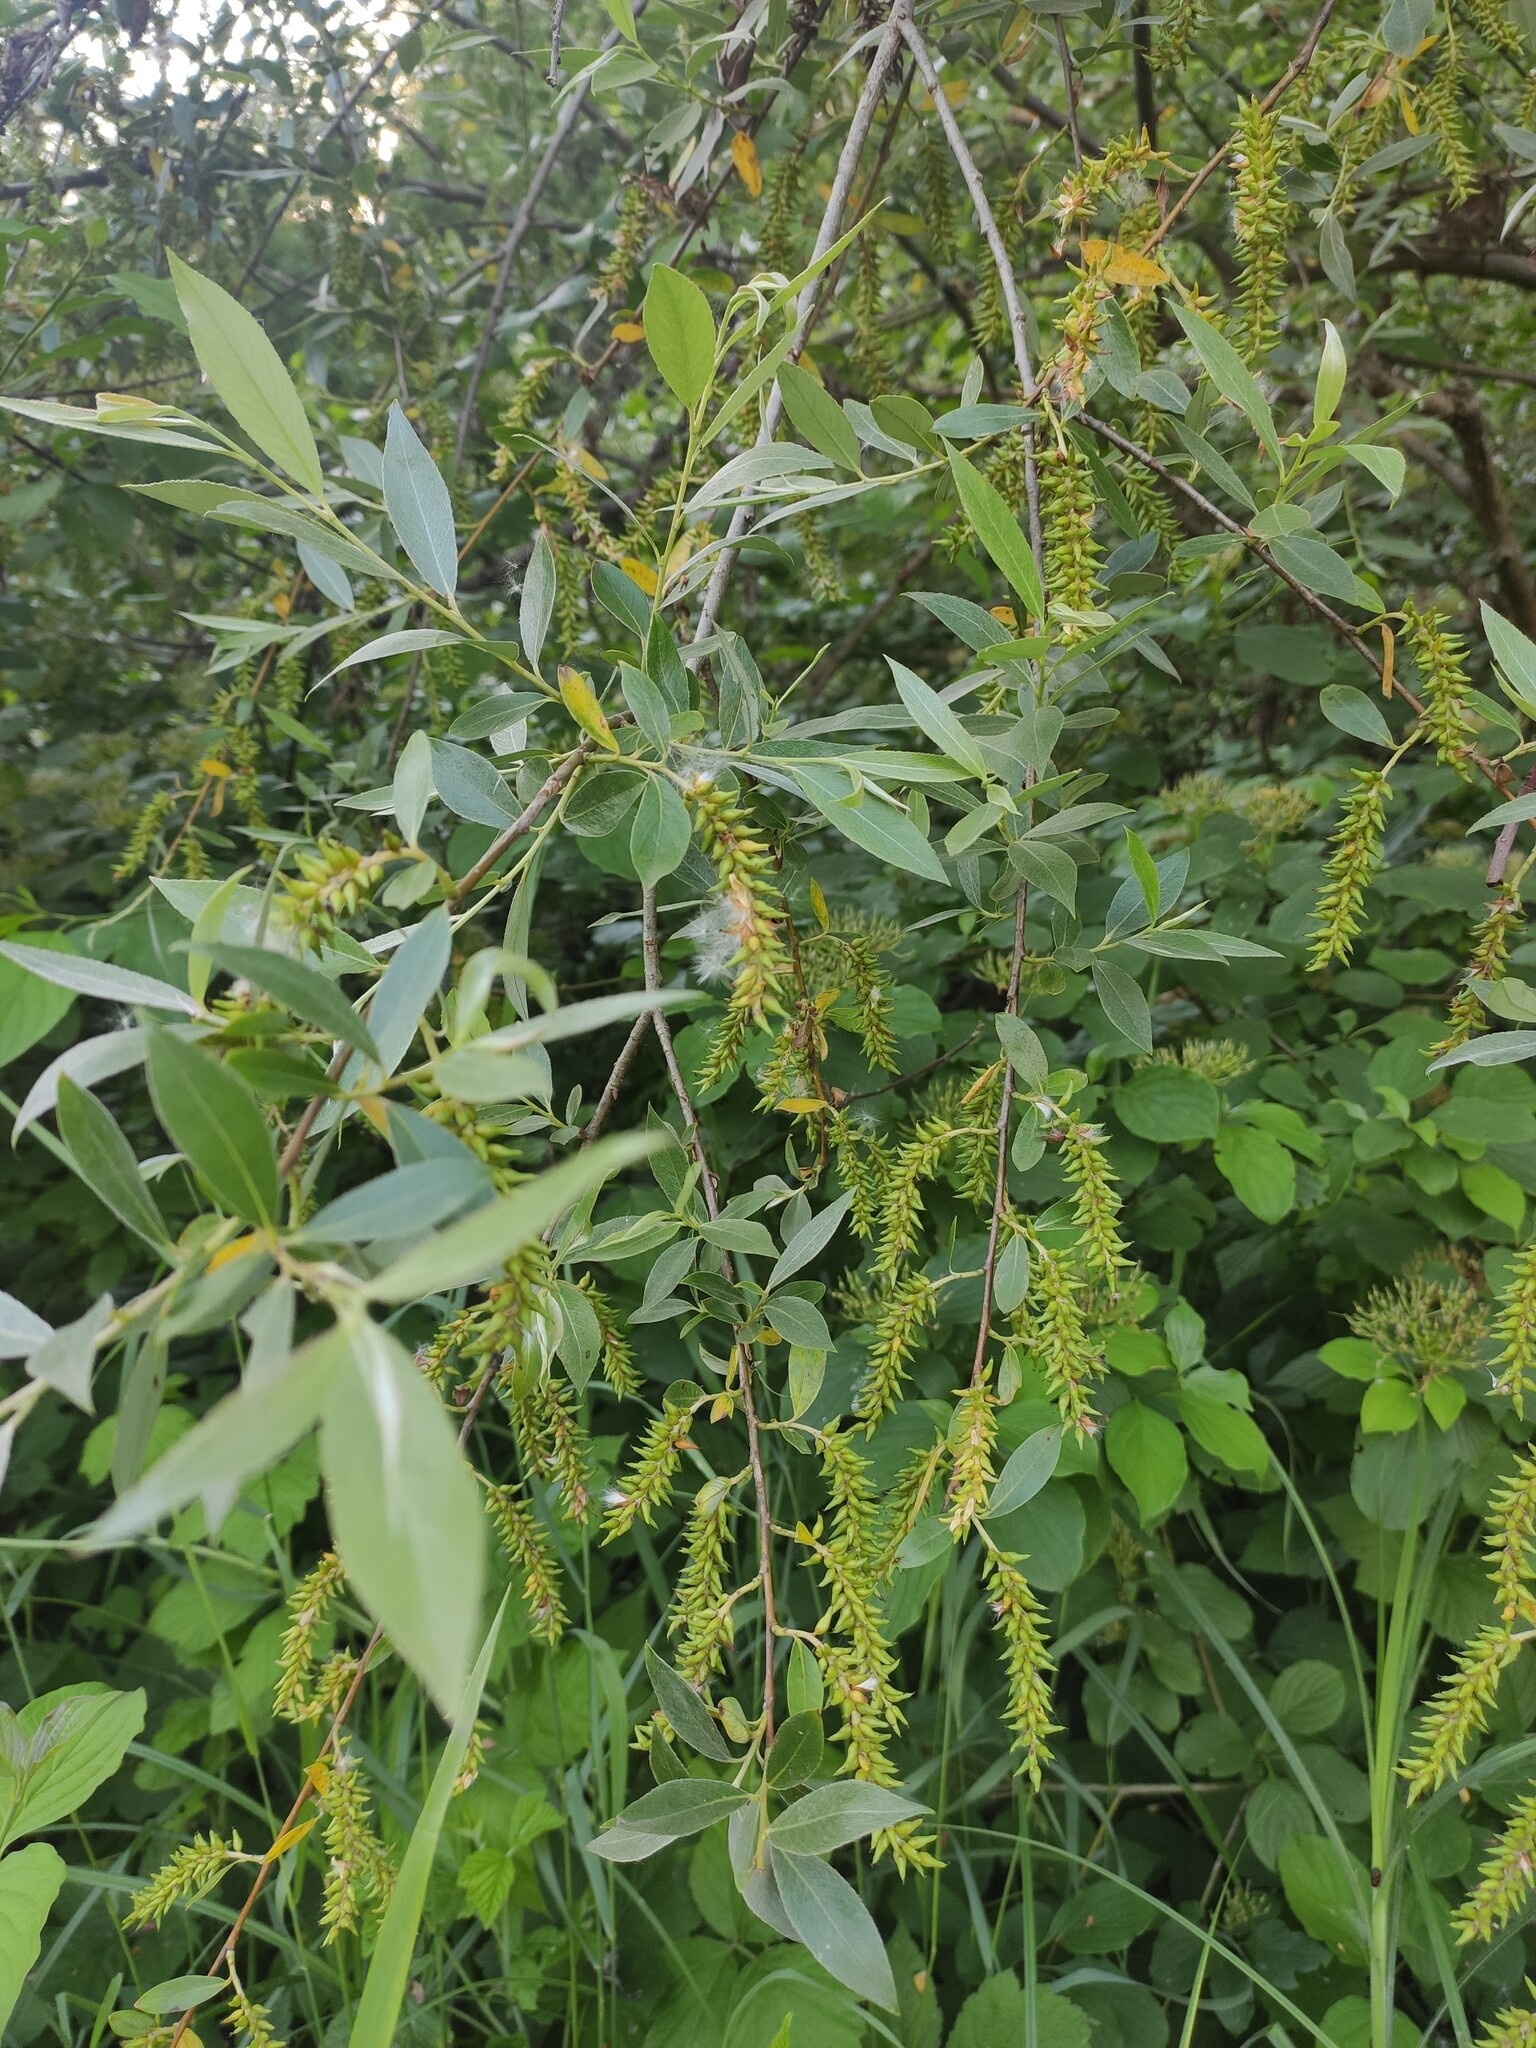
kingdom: Plantae
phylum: Tracheophyta
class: Magnoliopsida
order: Malpighiales
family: Salicaceae
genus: Salix
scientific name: Salix alba
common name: White willow
